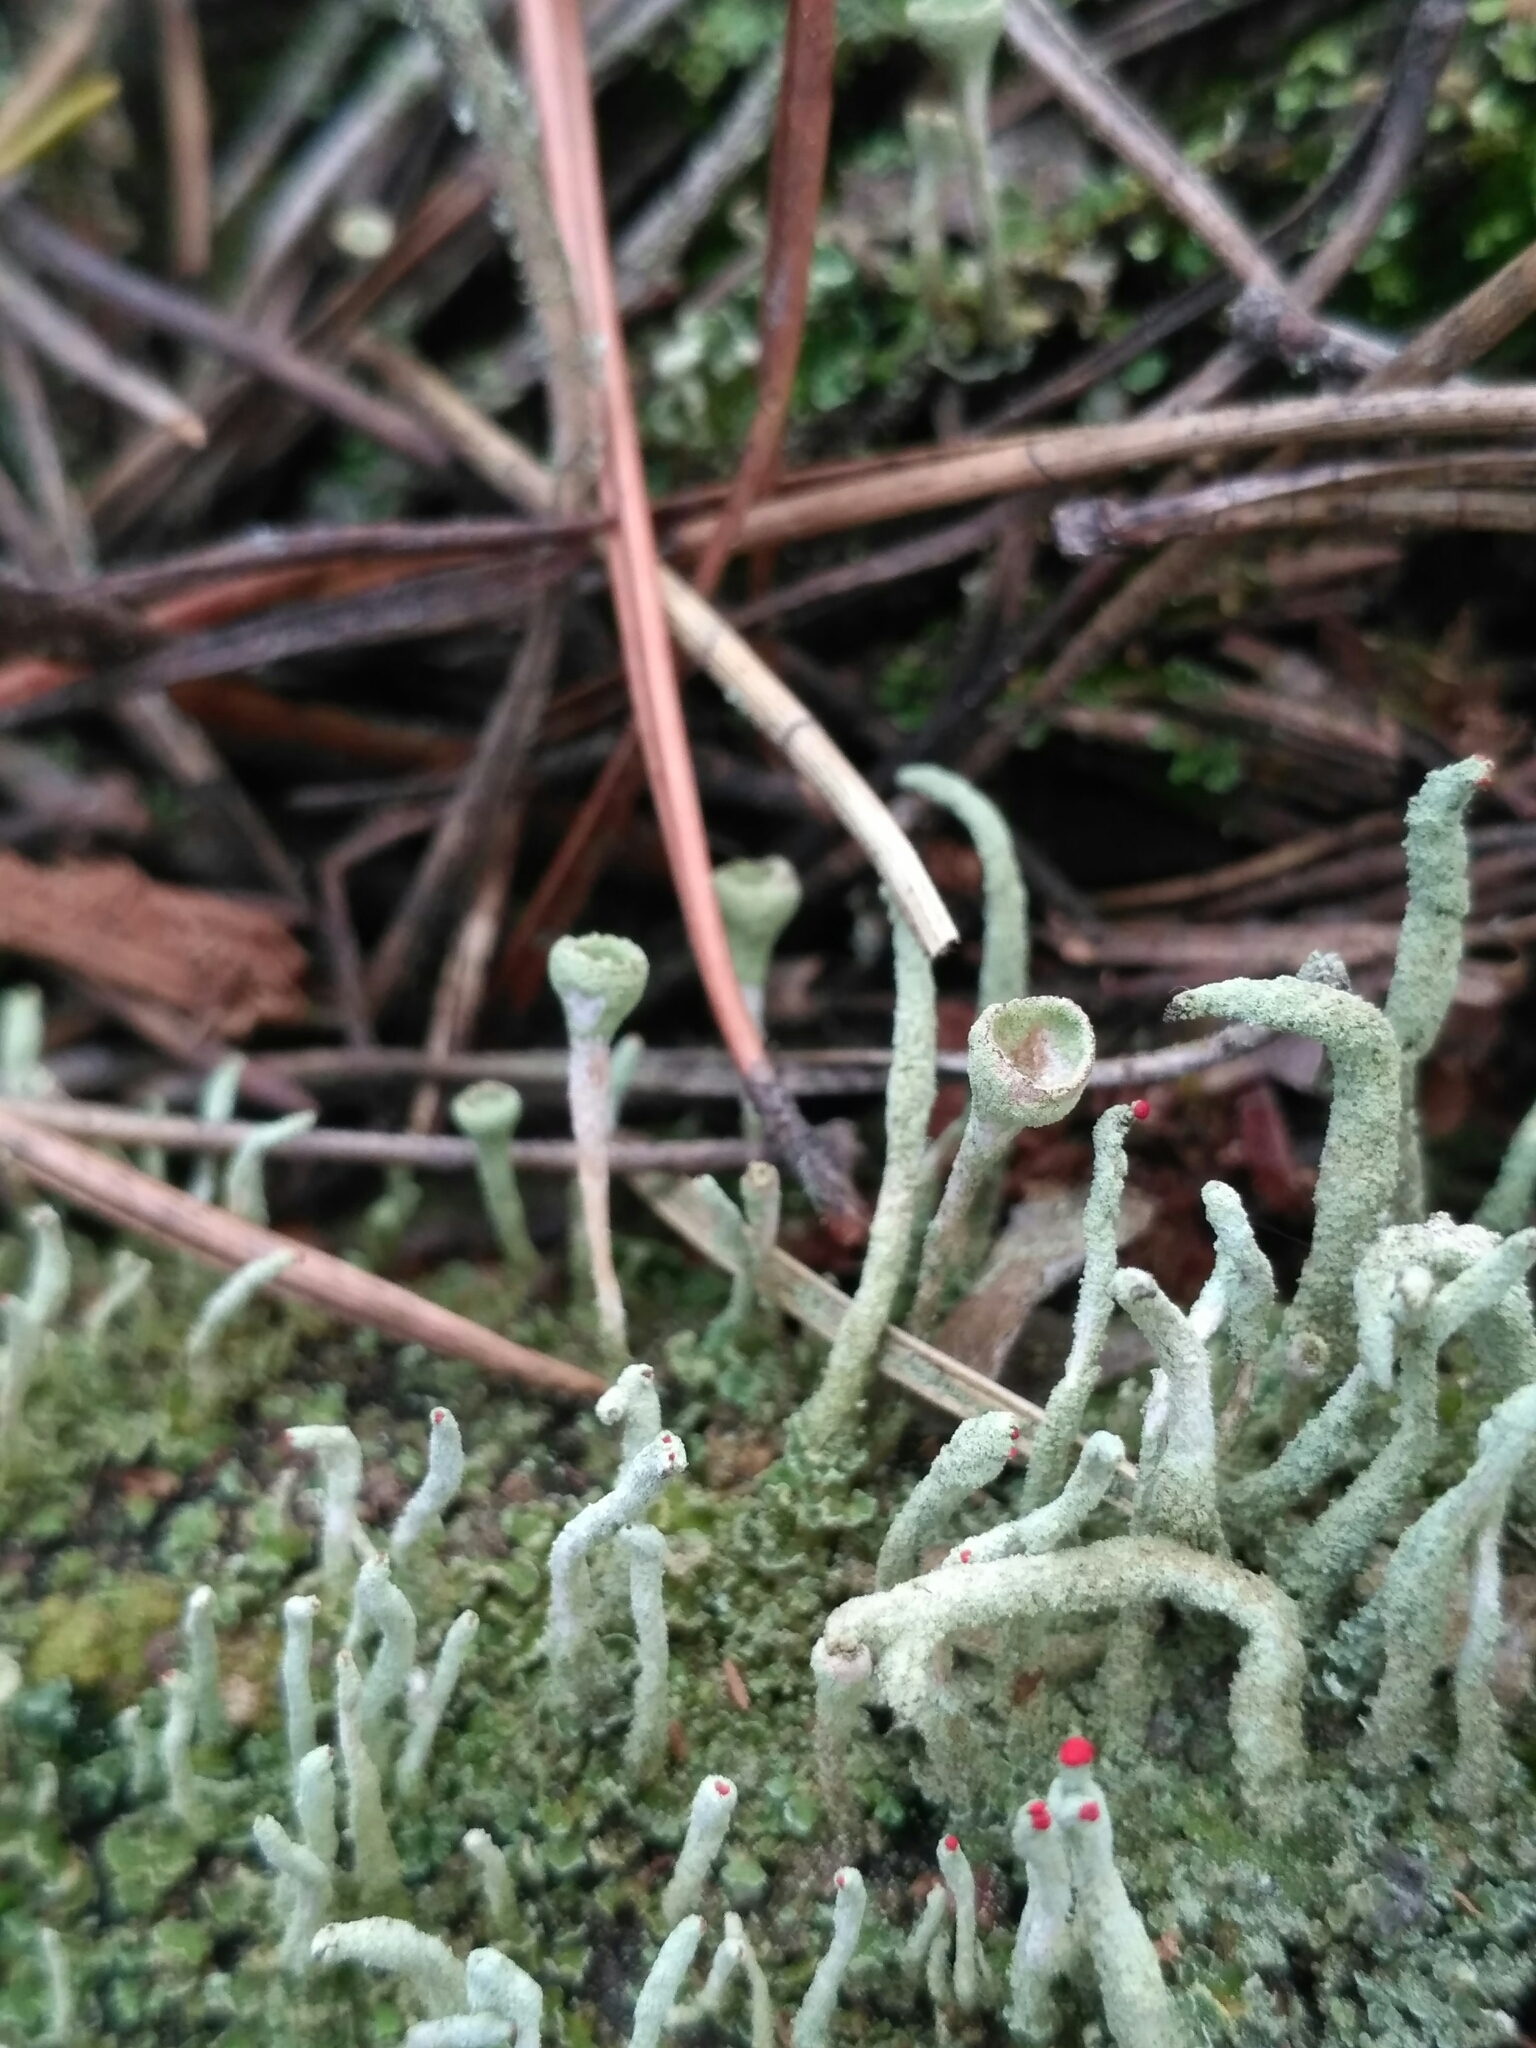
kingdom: Fungi
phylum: Ascomycota
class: Lecanoromycetes
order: Lecanorales
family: Cladoniaceae
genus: Cladonia
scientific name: Cladonia fimbriata
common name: Powdered trumpet lichen
